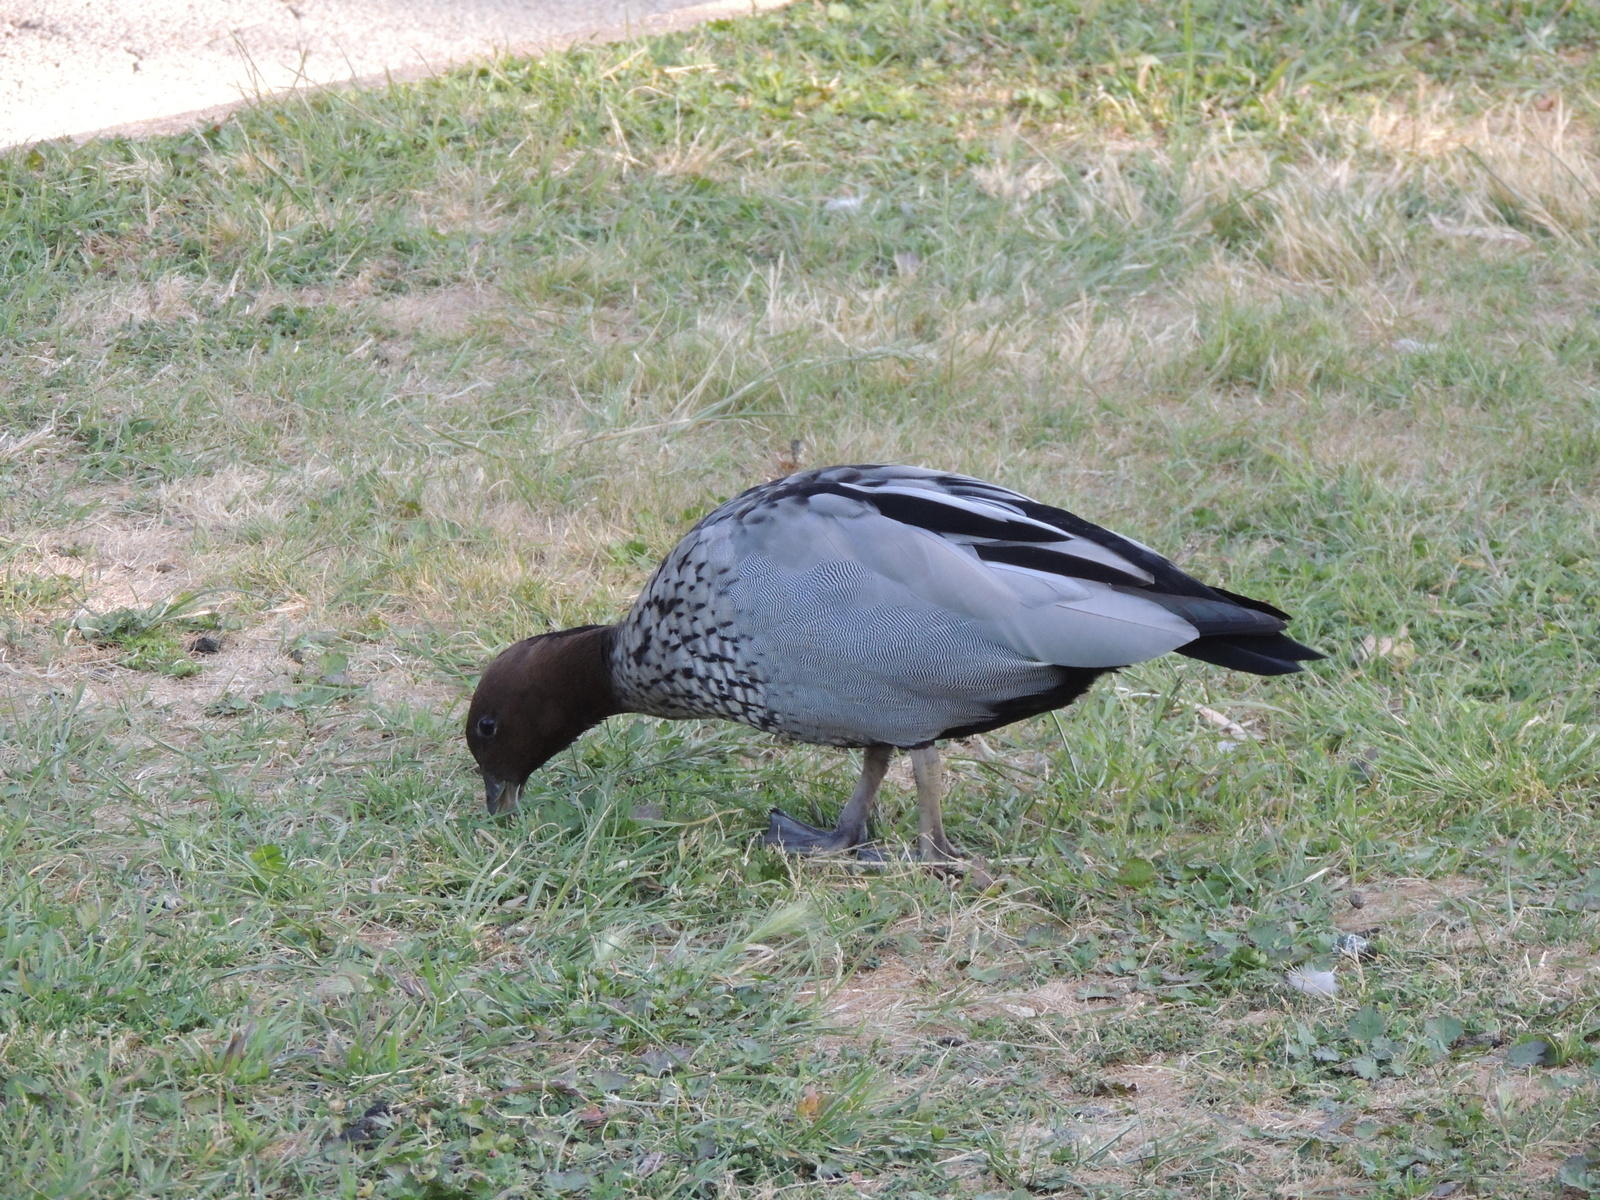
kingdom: Animalia
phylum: Chordata
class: Aves
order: Anseriformes
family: Anatidae
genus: Chenonetta
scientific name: Chenonetta jubata
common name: Maned duck
